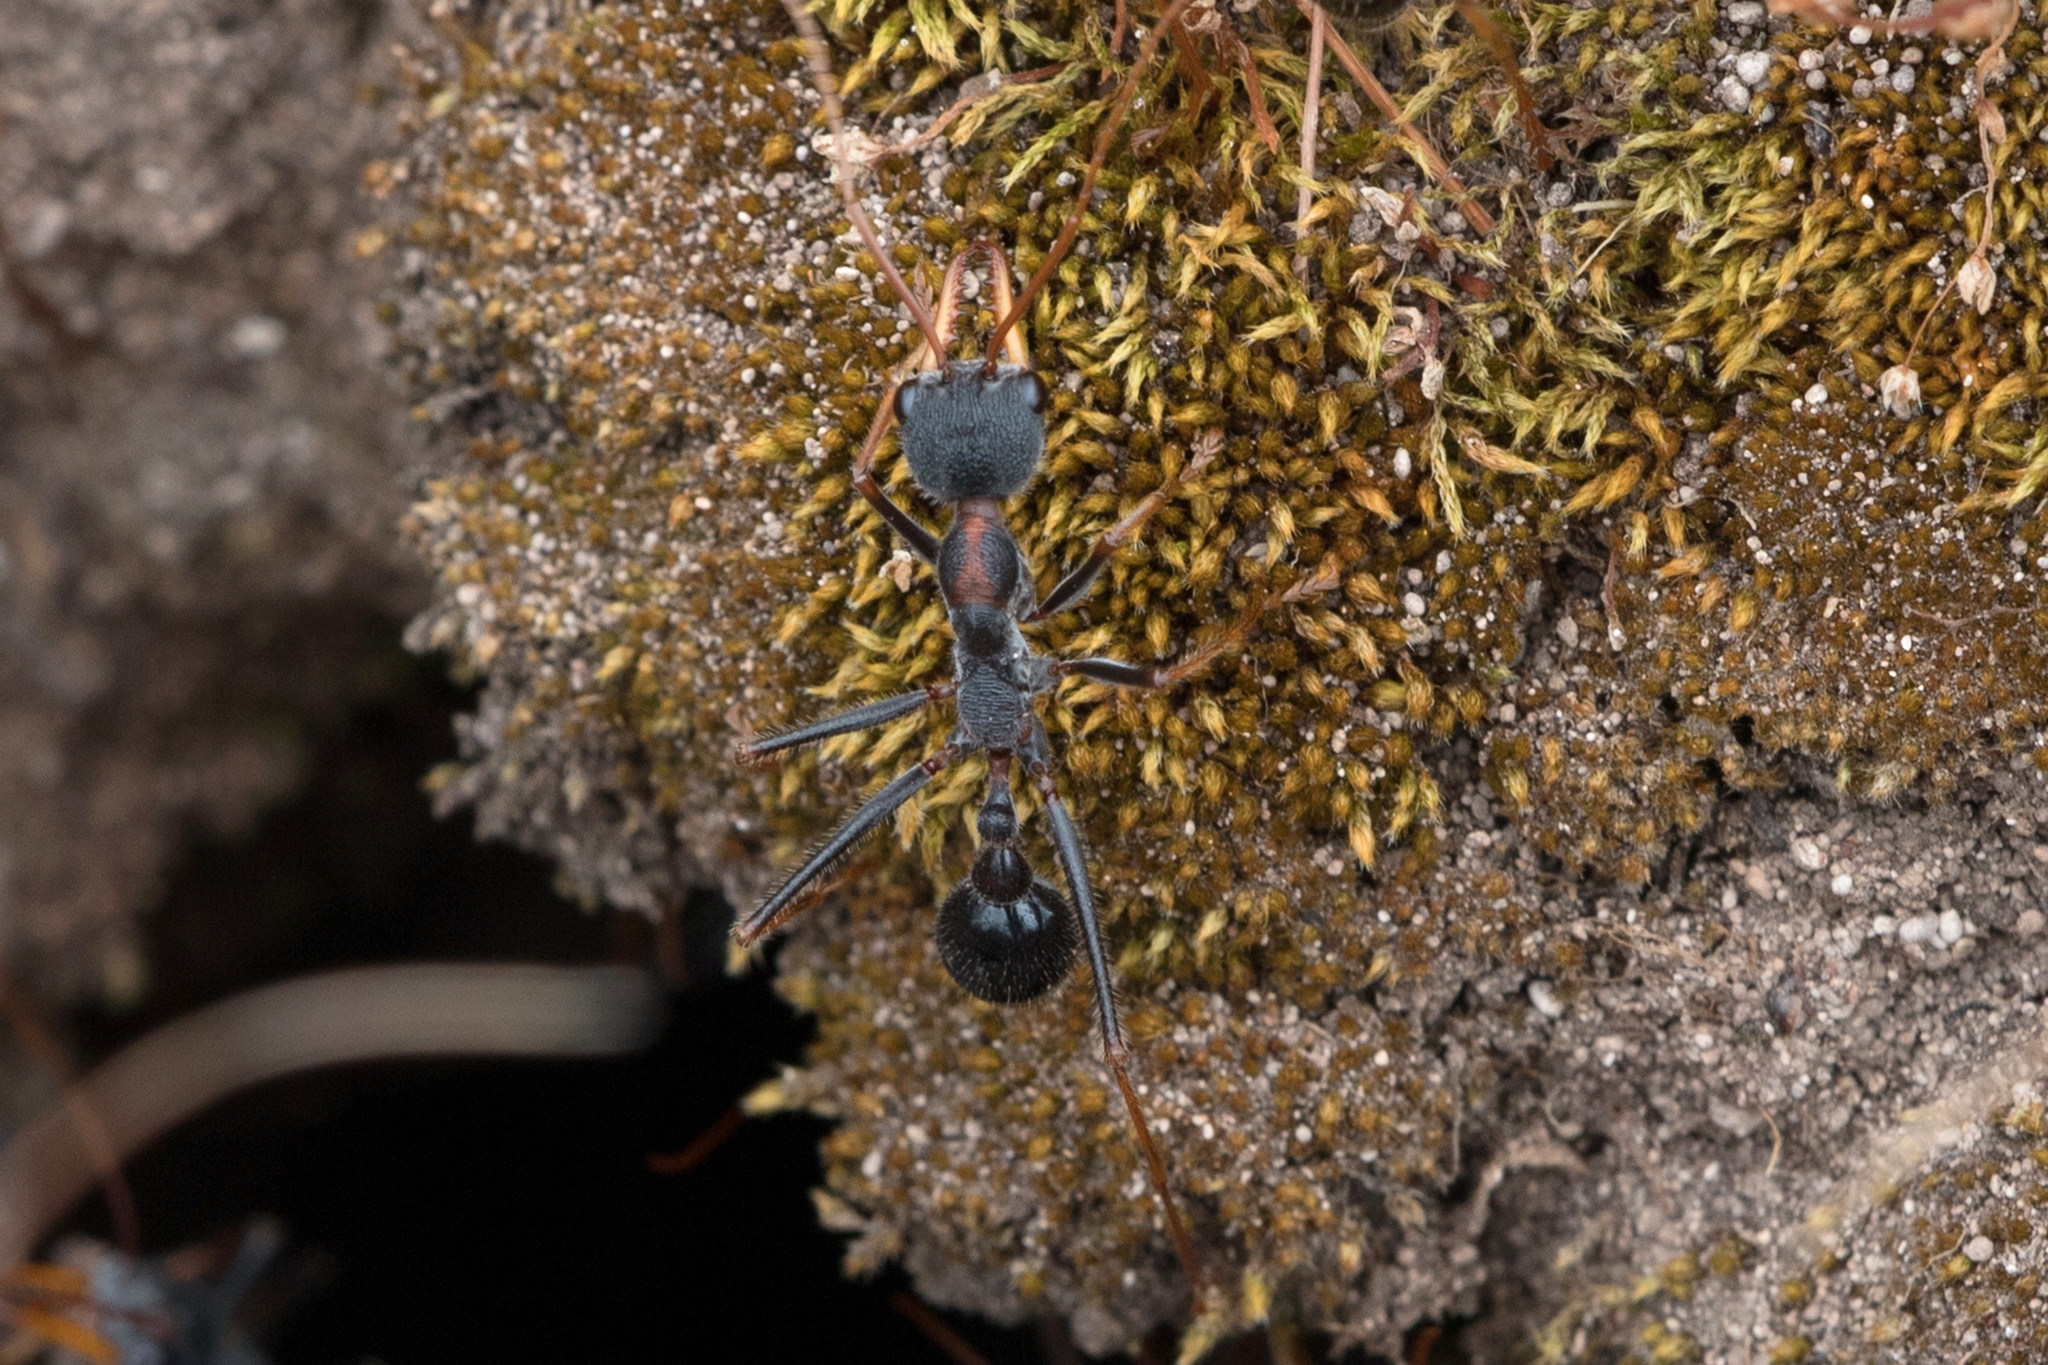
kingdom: Animalia
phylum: Arthropoda
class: Insecta
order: Hymenoptera
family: Formicidae
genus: Myrmecia
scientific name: Myrmecia arnoldi
